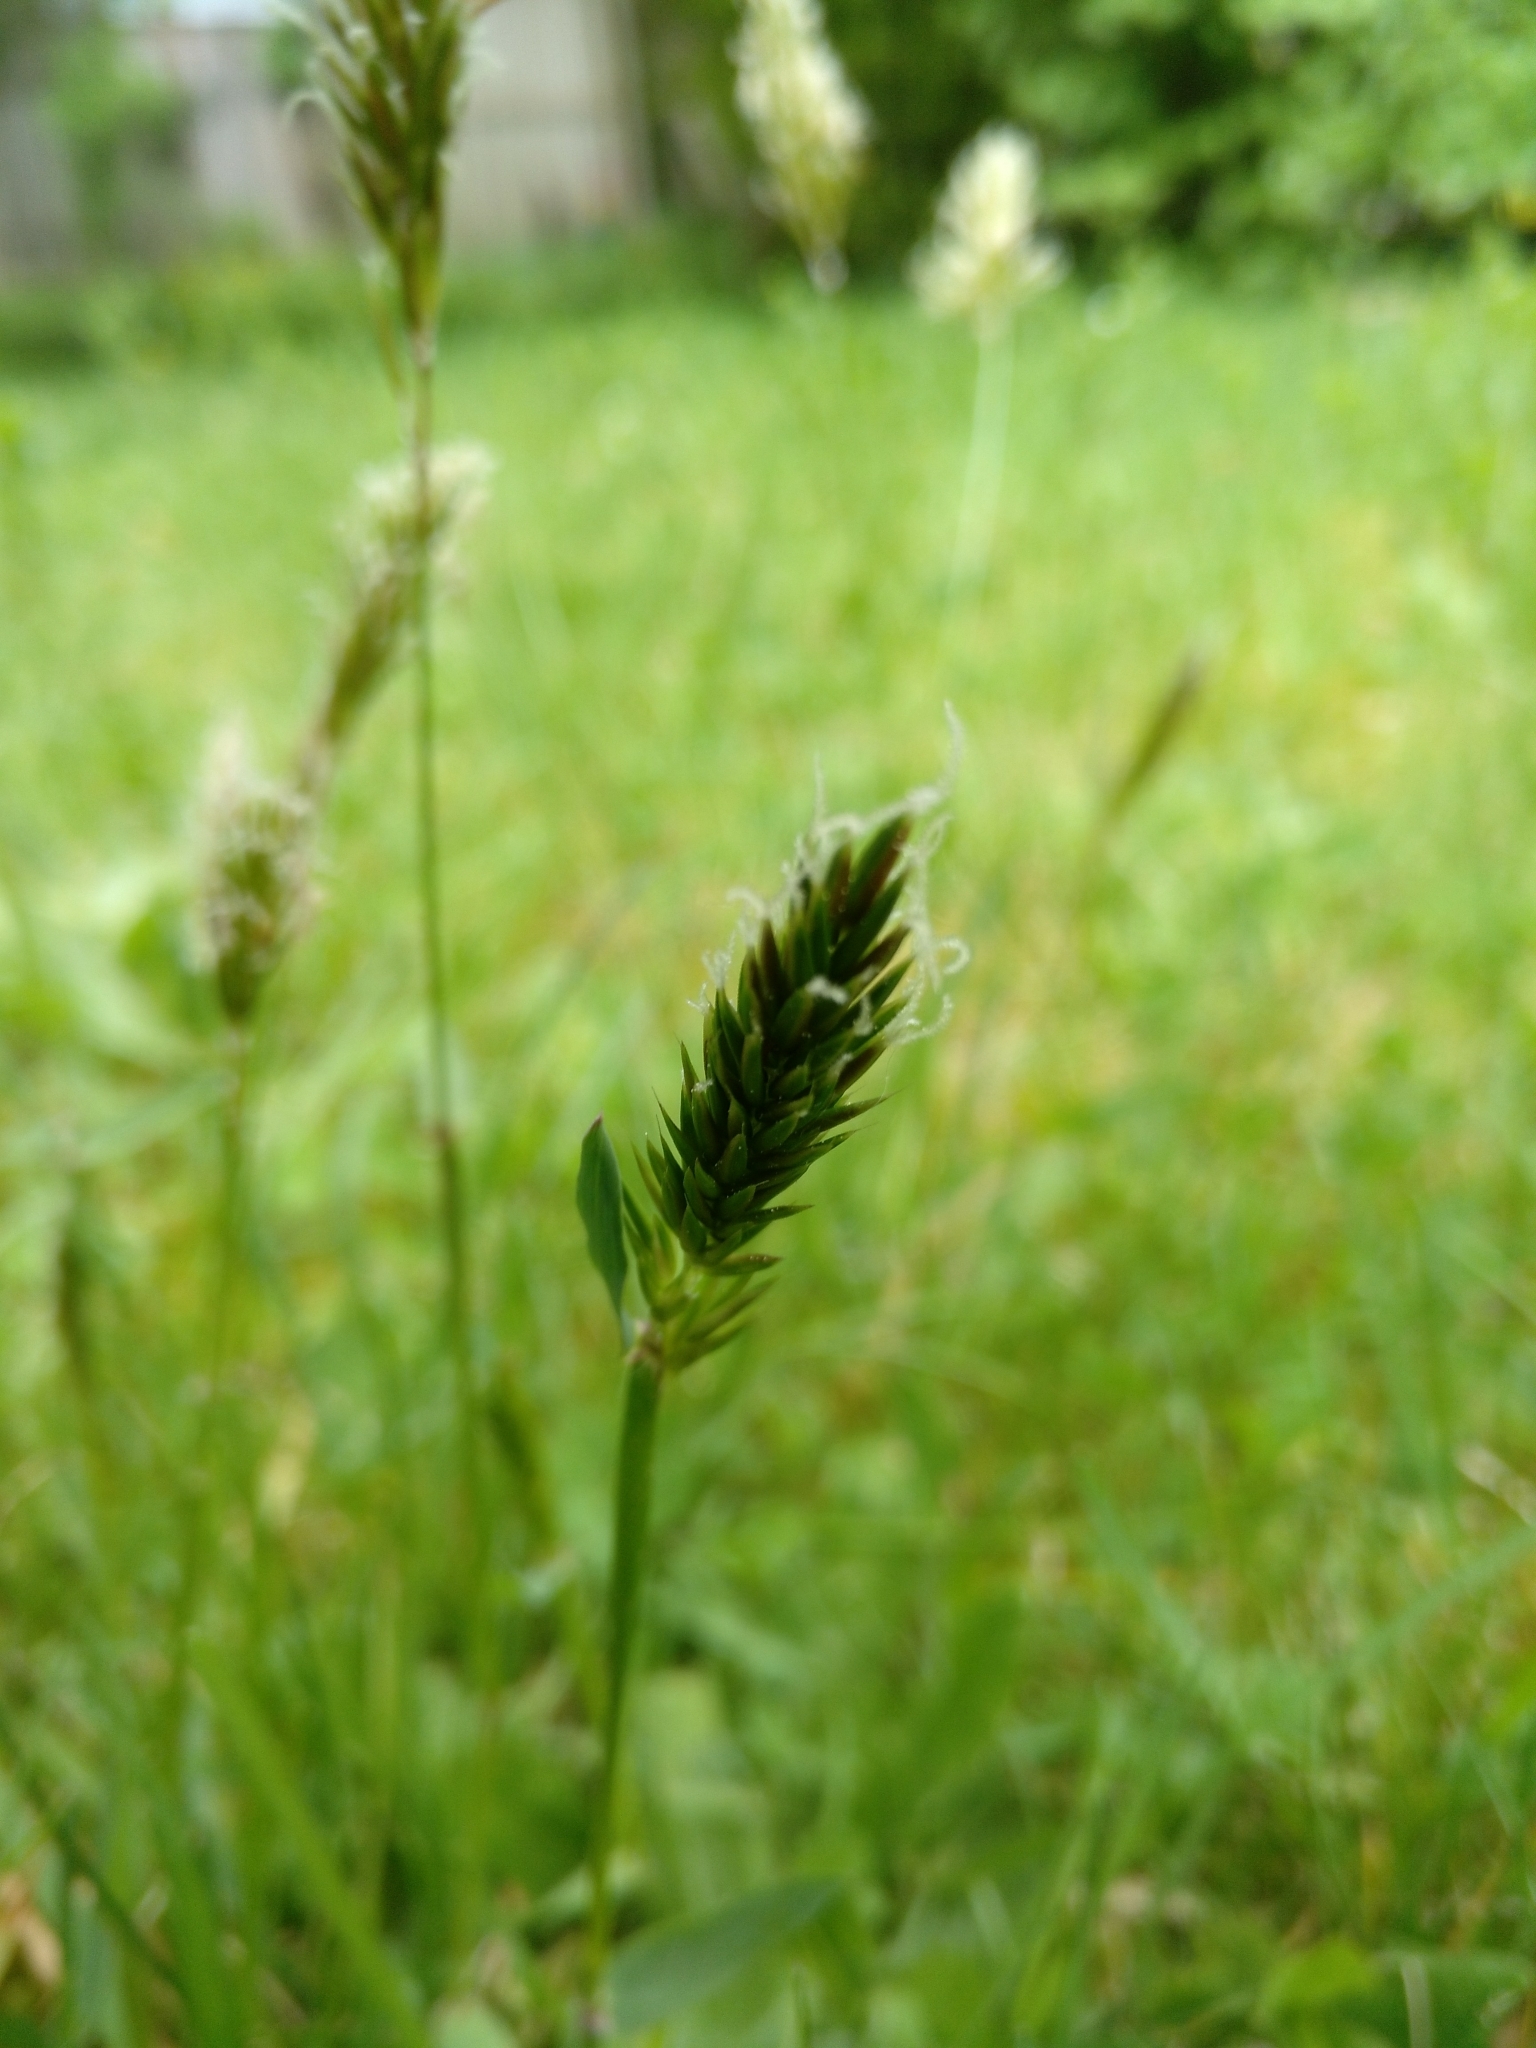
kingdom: Plantae
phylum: Tracheophyta
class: Liliopsida
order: Poales
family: Poaceae
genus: Anthoxanthum
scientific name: Anthoxanthum odoratum
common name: Sweet vernalgrass
